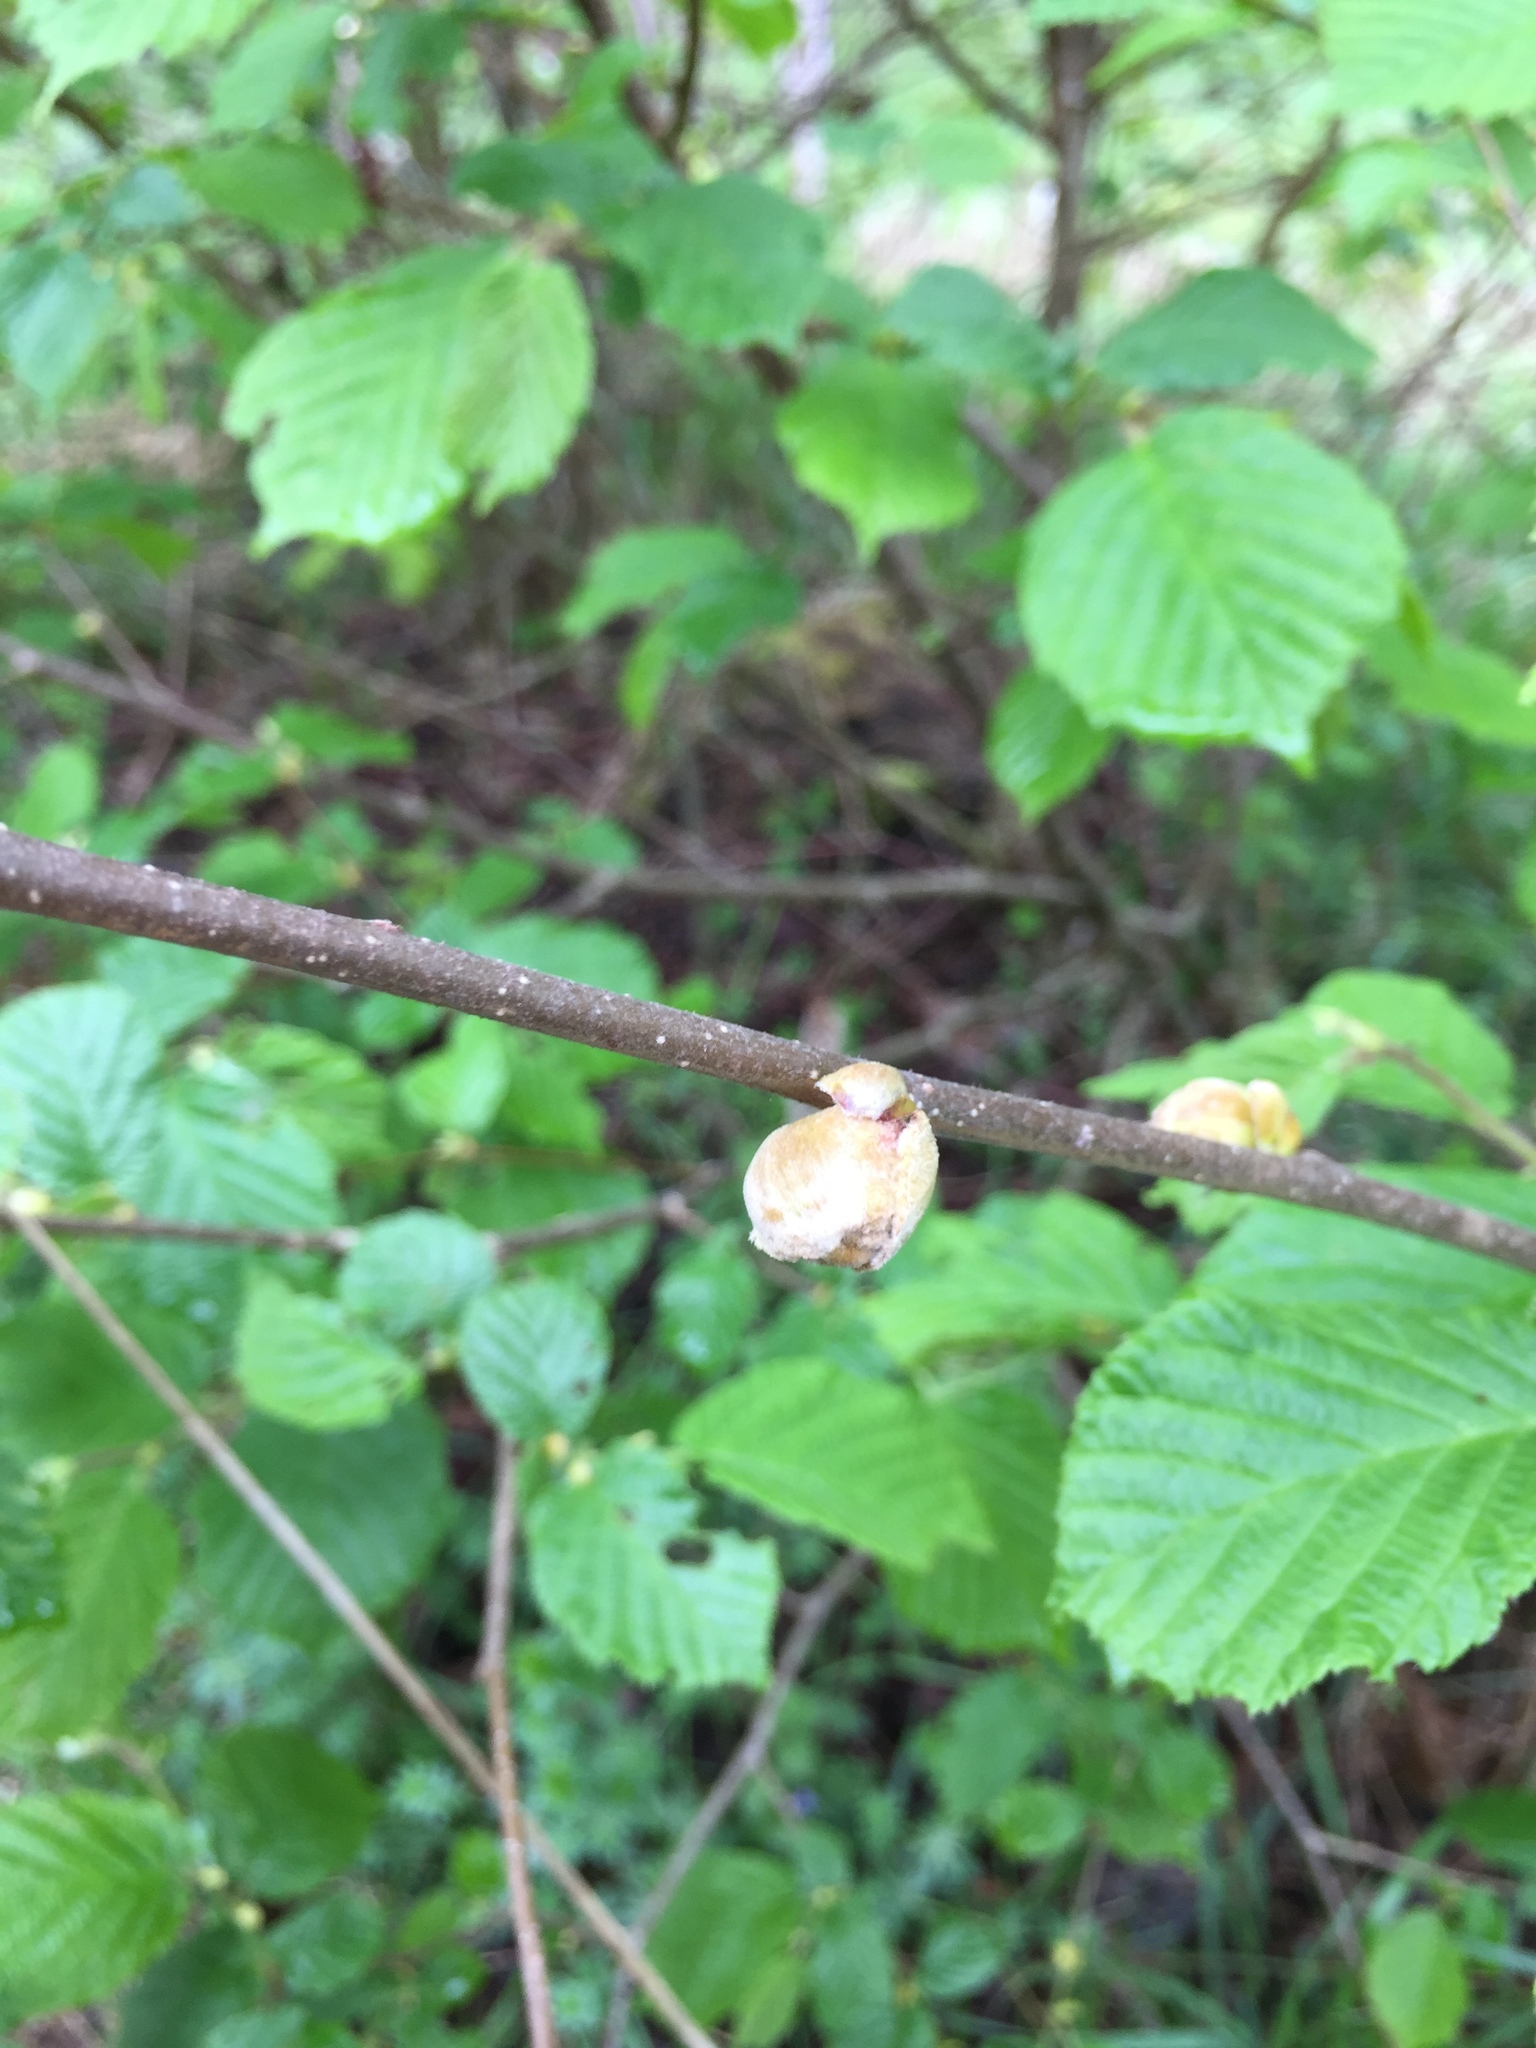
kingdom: Animalia
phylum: Arthropoda
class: Arachnida
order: Trombidiformes
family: Phytoptidae
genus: Phytoptus
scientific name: Phytoptus avellanae
